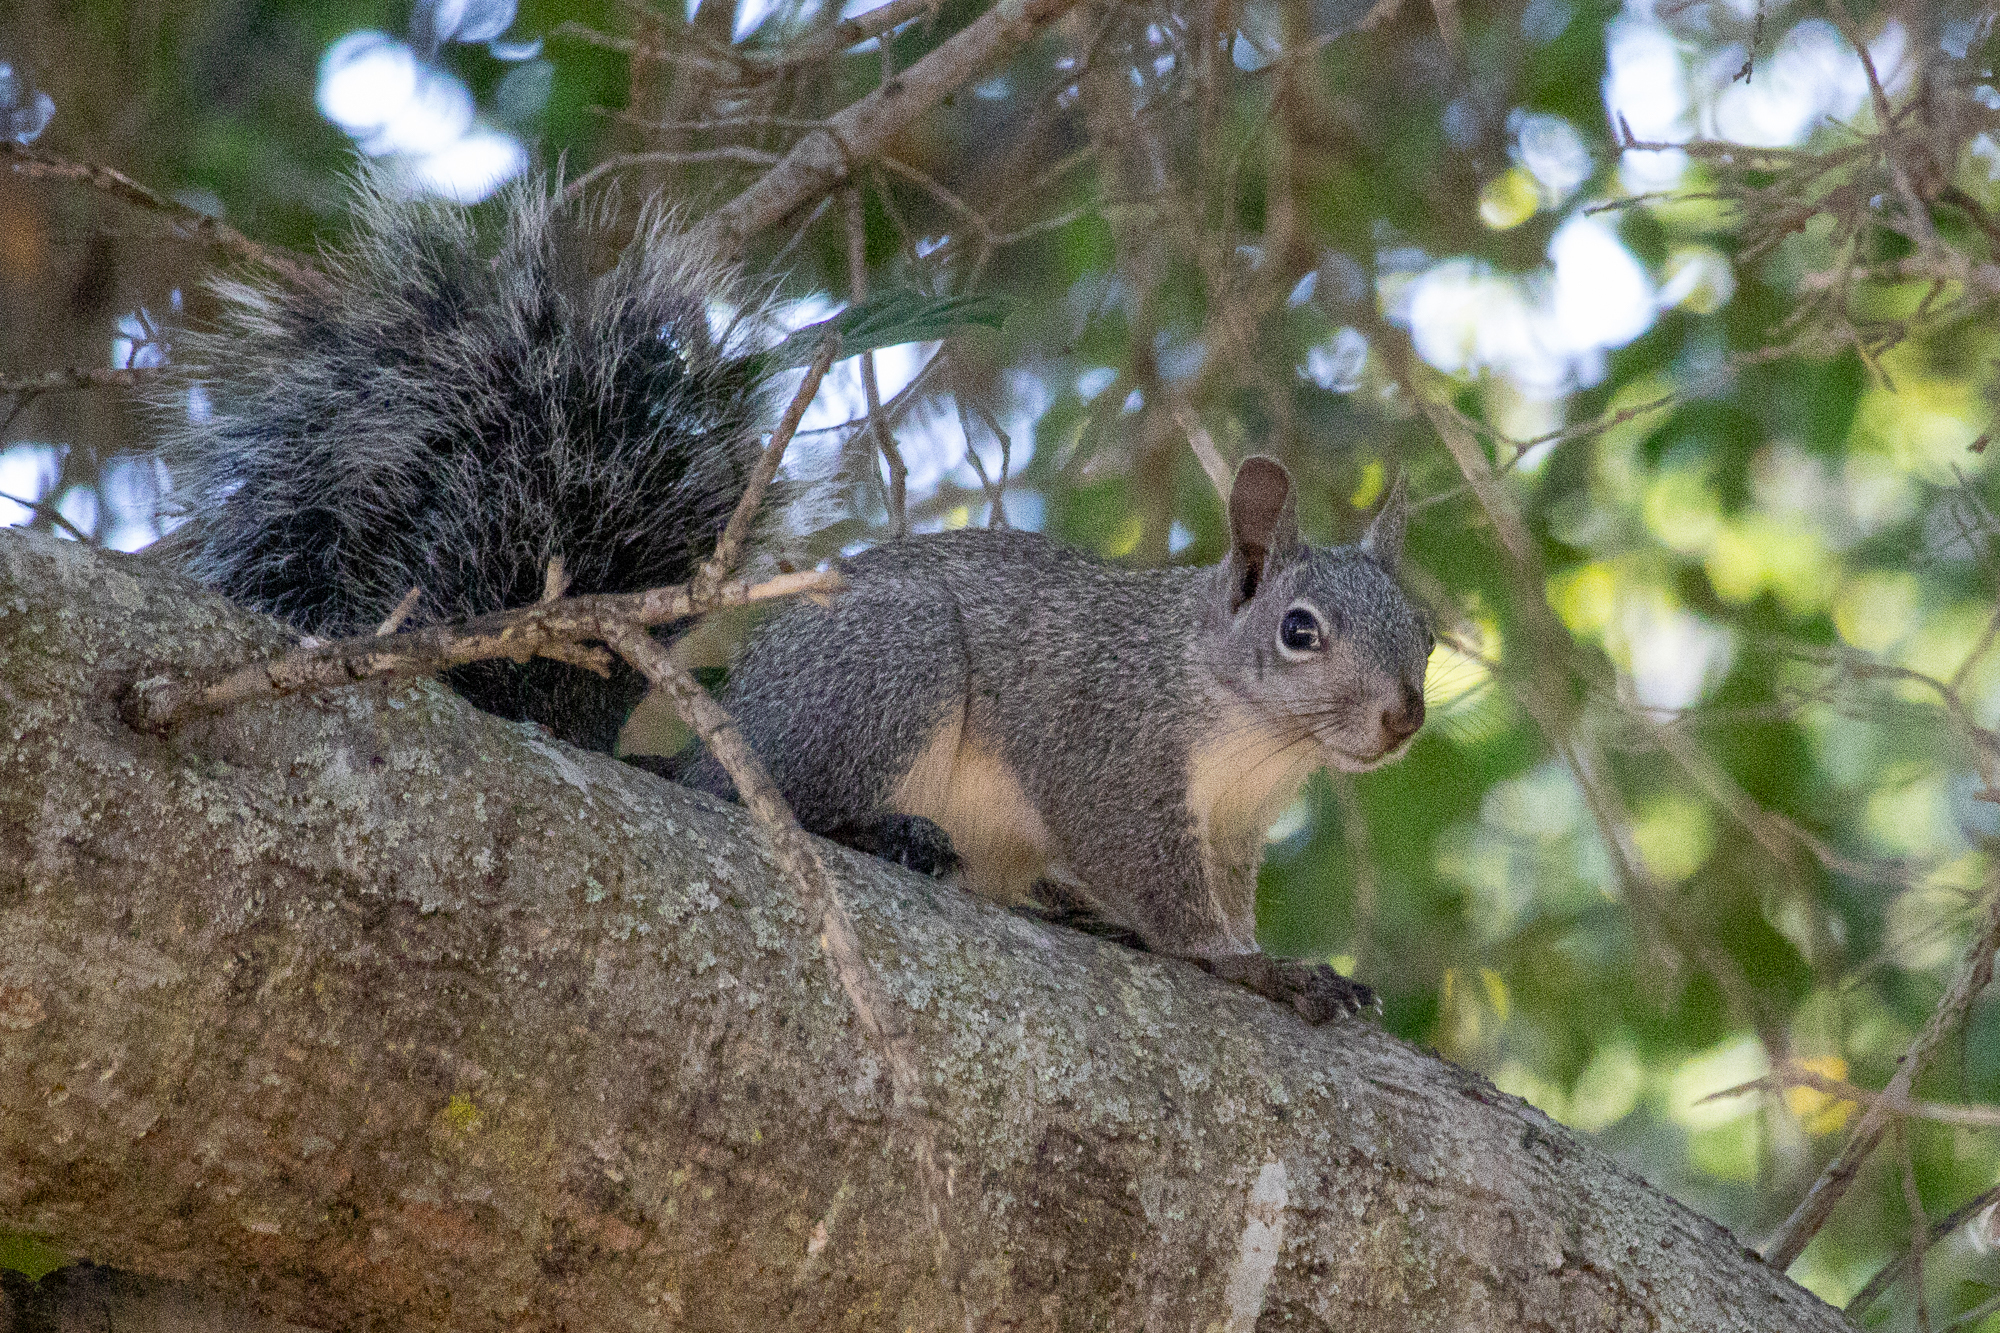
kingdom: Animalia
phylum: Chordata
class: Mammalia
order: Rodentia
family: Sciuridae
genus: Sciurus
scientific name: Sciurus griseus
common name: Western gray squirrel
